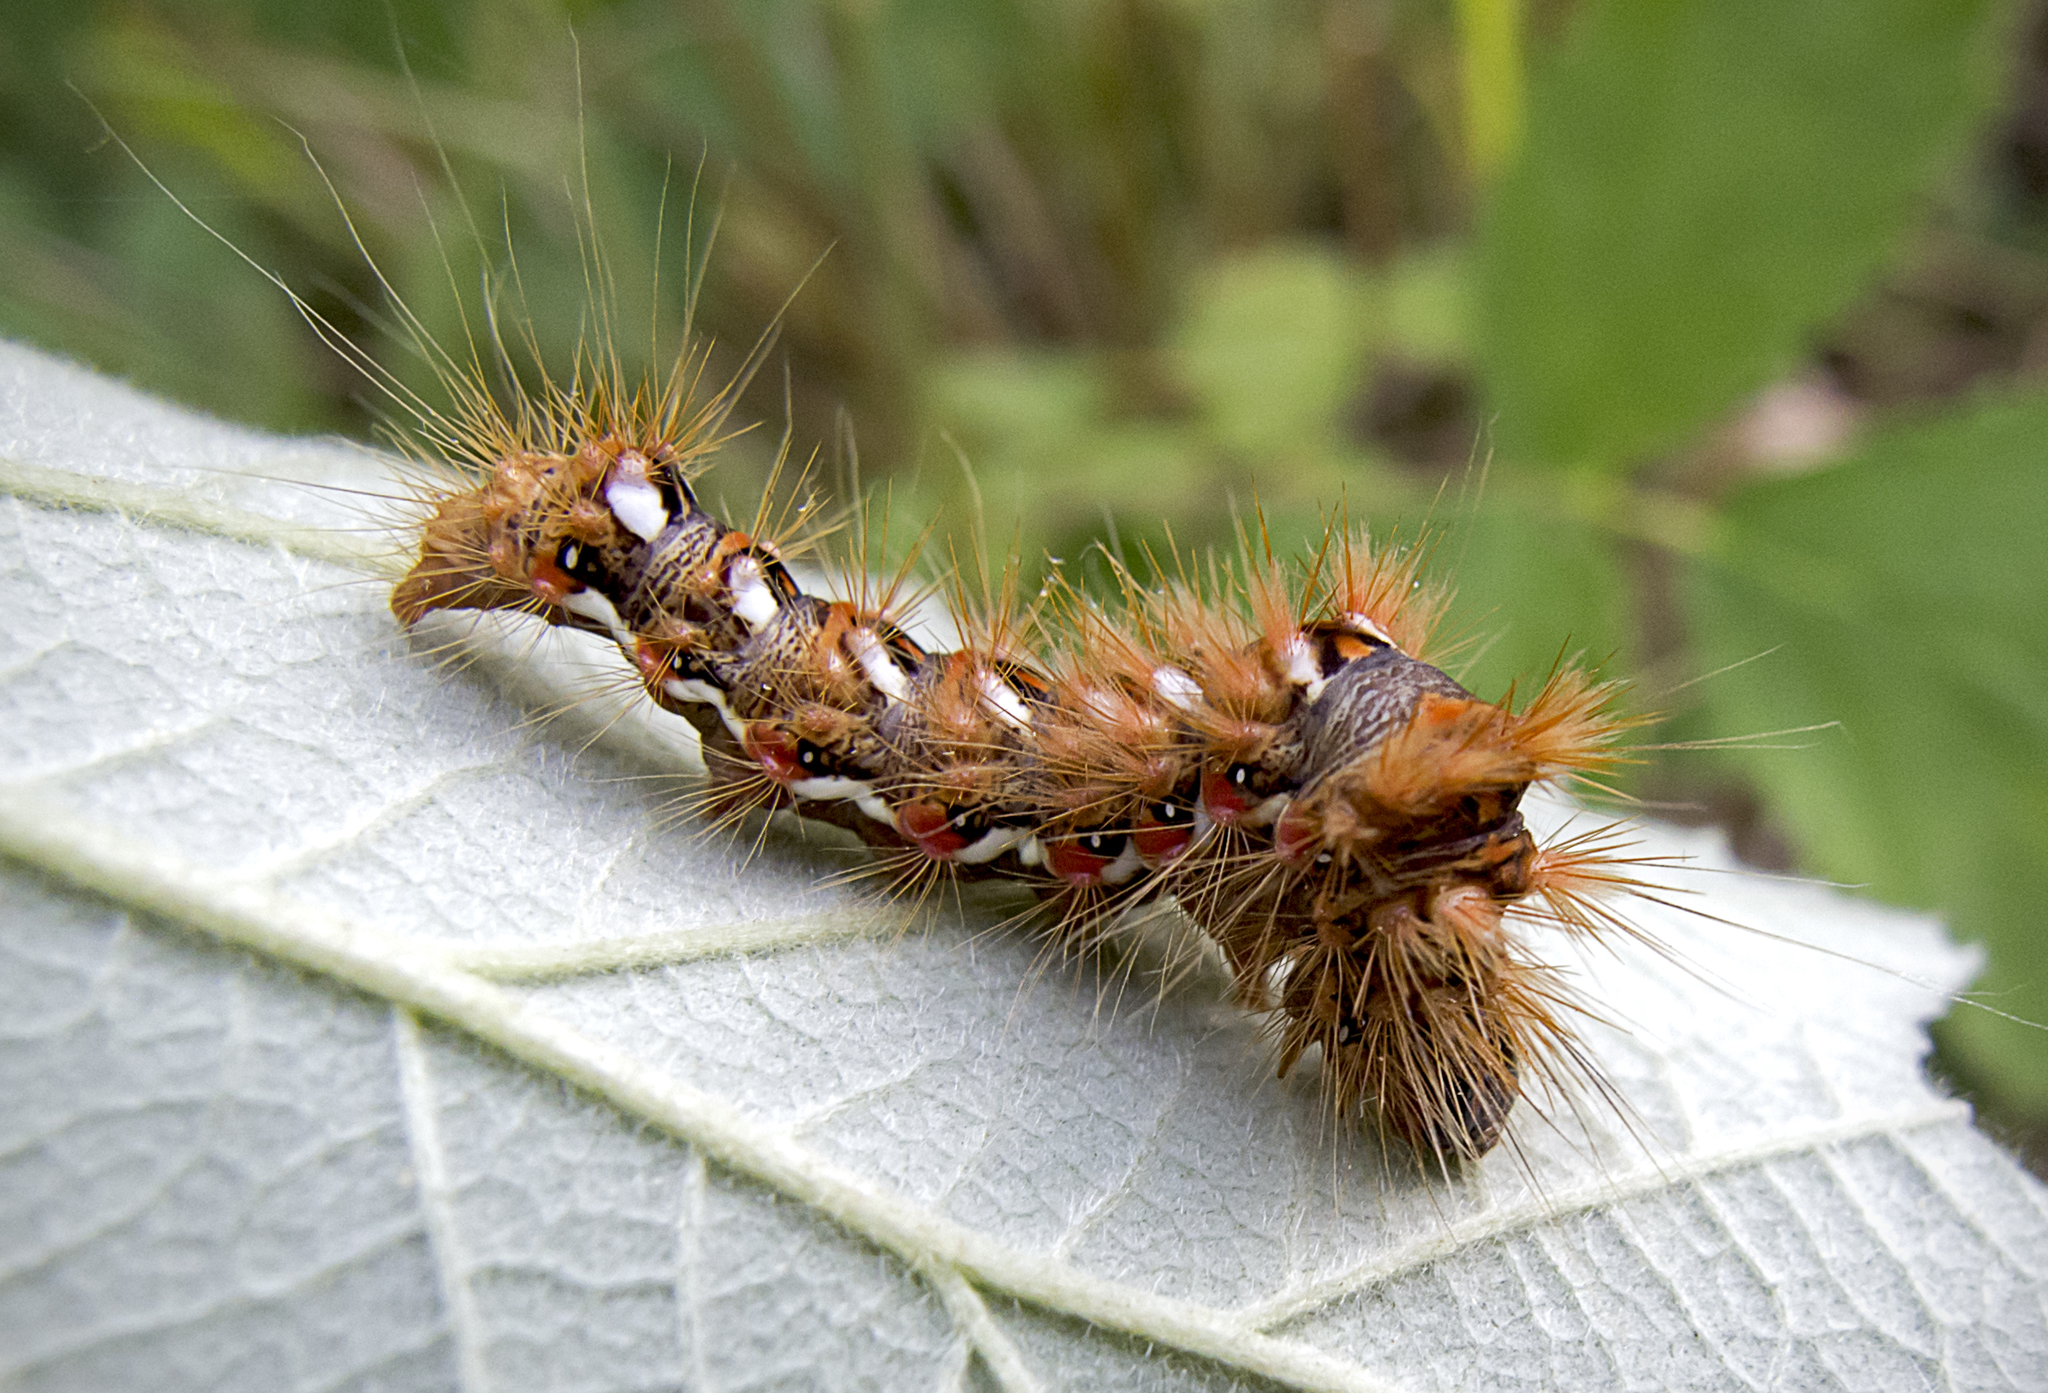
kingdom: Animalia
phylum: Arthropoda
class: Insecta
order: Lepidoptera
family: Noctuidae
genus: Acronicta
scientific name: Acronicta rumicis
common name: Knot grass
